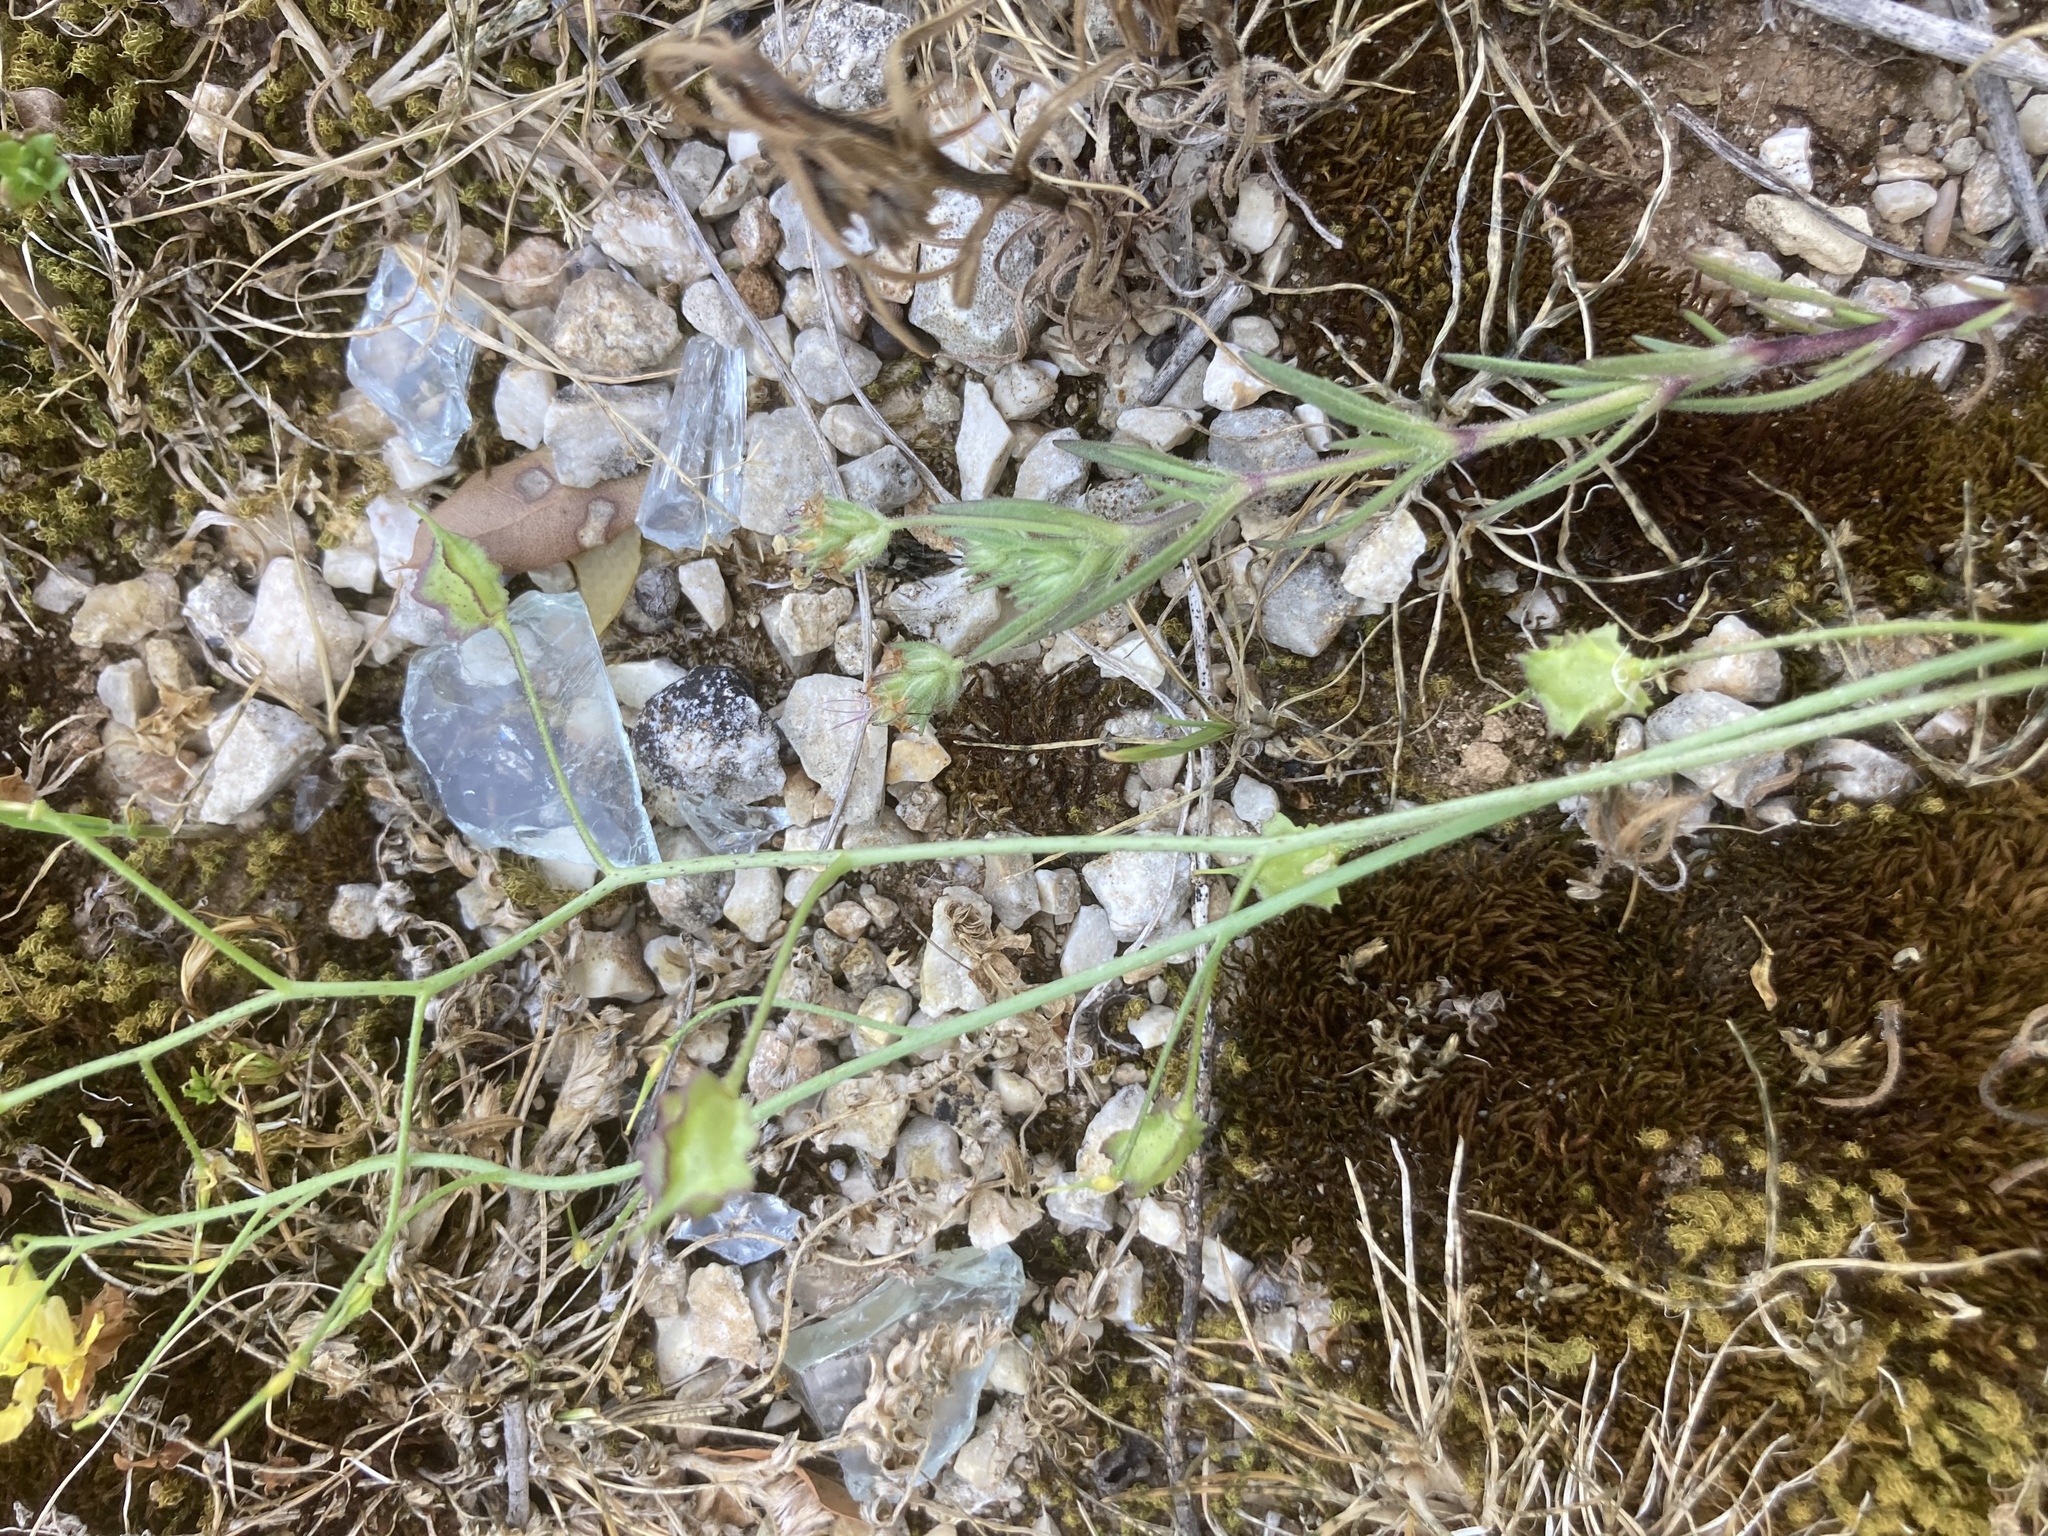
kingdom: Plantae
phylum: Tracheophyta
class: Magnoliopsida
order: Brassicales
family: Brassicaceae
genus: Bunias
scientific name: Bunias erucago
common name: Southern warty-cabbage
